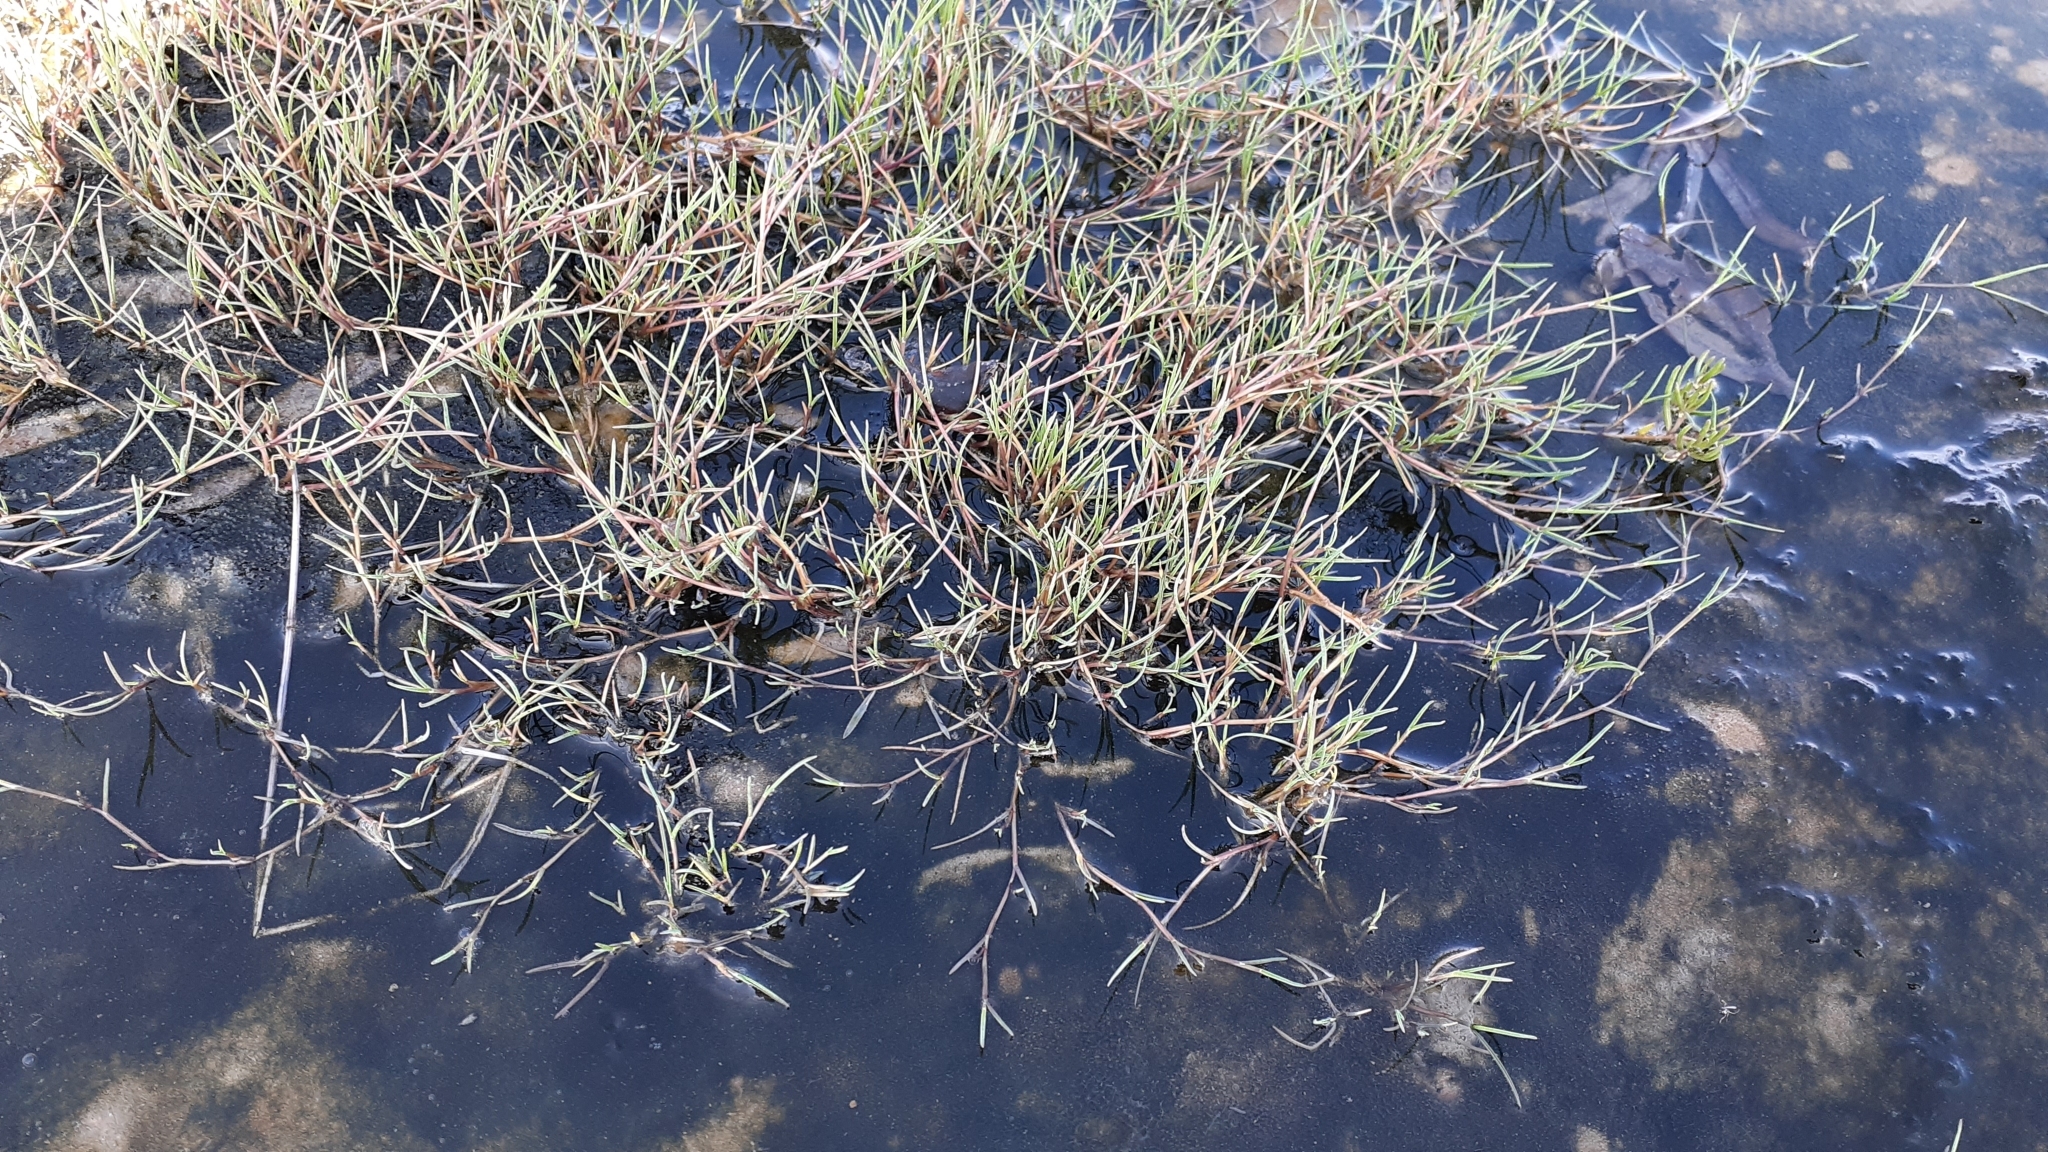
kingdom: Plantae
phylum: Tracheophyta
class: Liliopsida
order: Poales
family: Poaceae
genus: Puccinellia
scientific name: Puccinellia phryganodes
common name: Creeping alkaligrass
